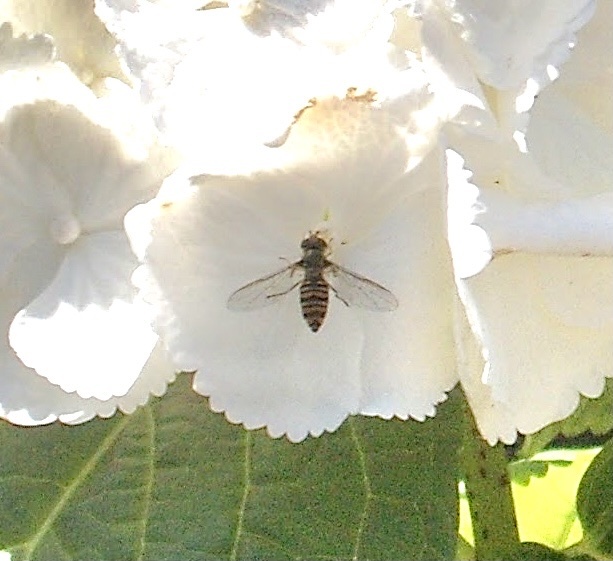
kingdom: Animalia
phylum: Arthropoda
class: Insecta
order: Diptera
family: Syrphidae
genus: Episyrphus
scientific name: Episyrphus balteatus
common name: Marmalade hoverfly
